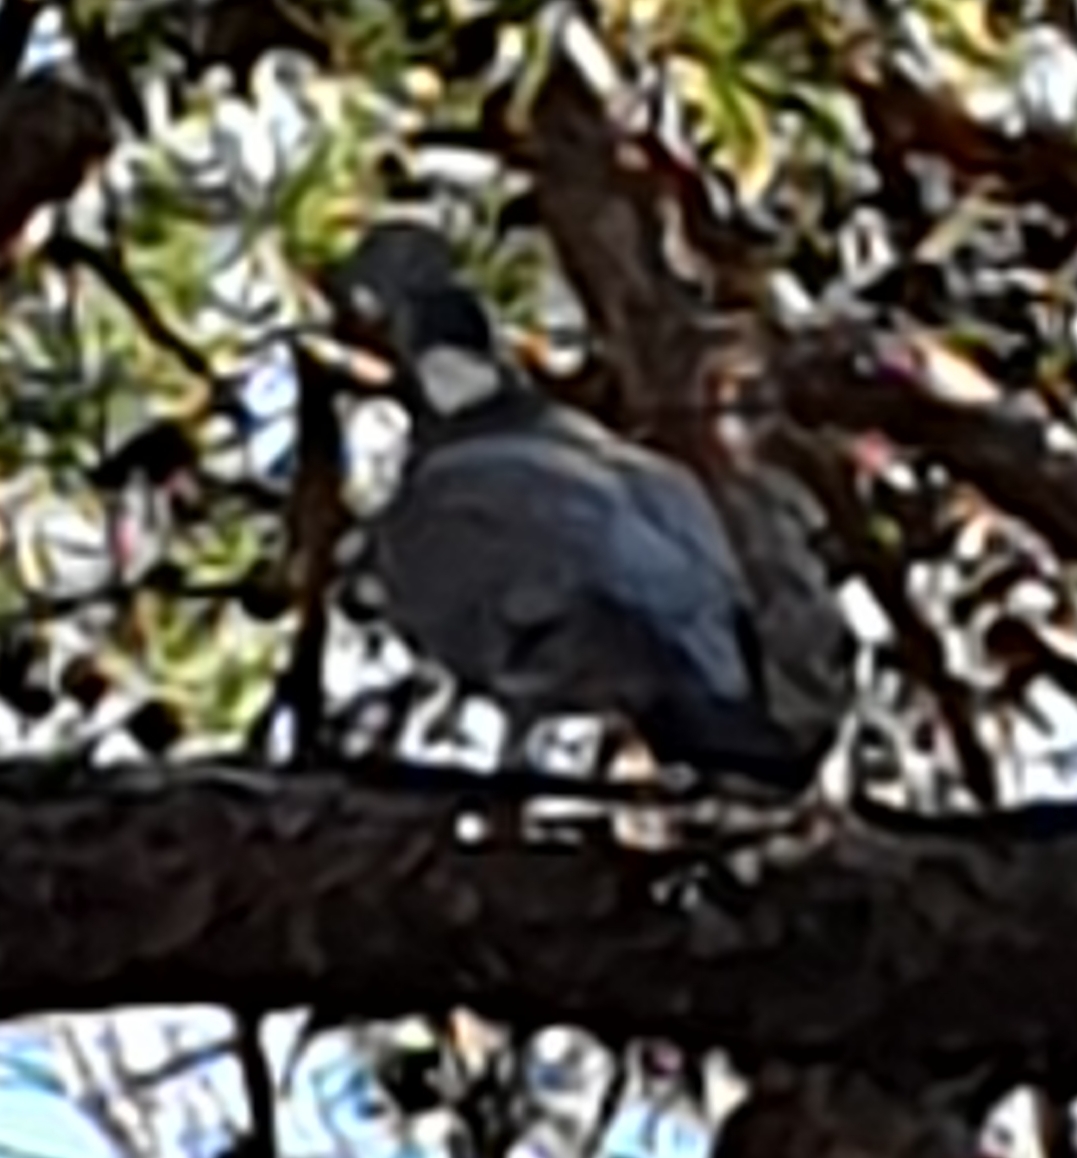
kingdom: Animalia
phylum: Chordata
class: Aves
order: Columbiformes
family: Columbidae
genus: Columba
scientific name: Columba palumbus
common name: Common wood pigeon
